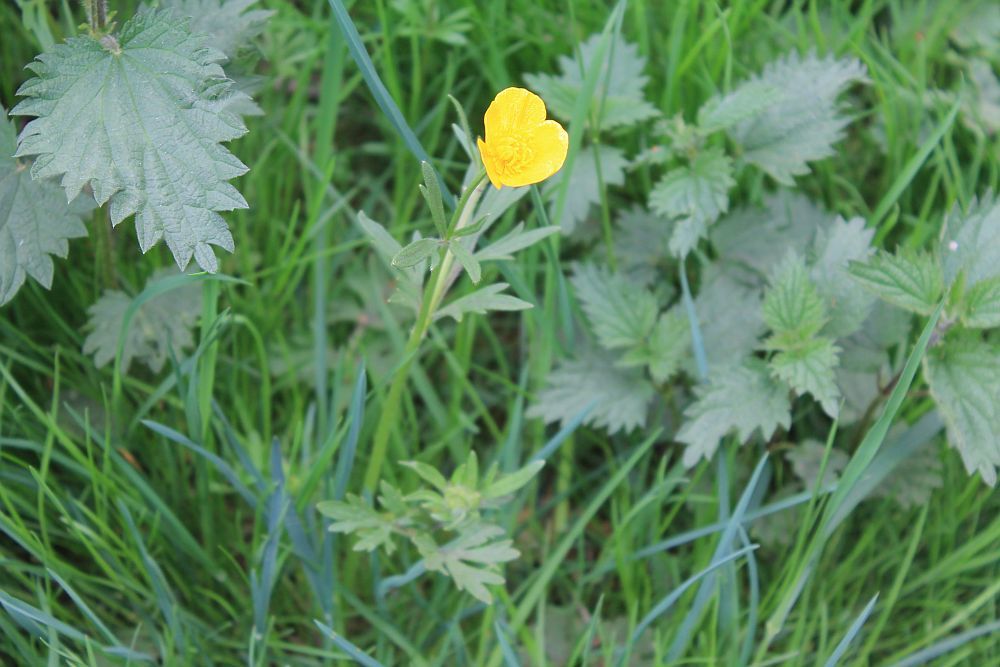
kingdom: Plantae
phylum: Tracheophyta
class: Magnoliopsida
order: Ranunculales
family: Ranunculaceae
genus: Ranunculus
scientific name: Ranunculus bulbosus
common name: Bulbous buttercup
